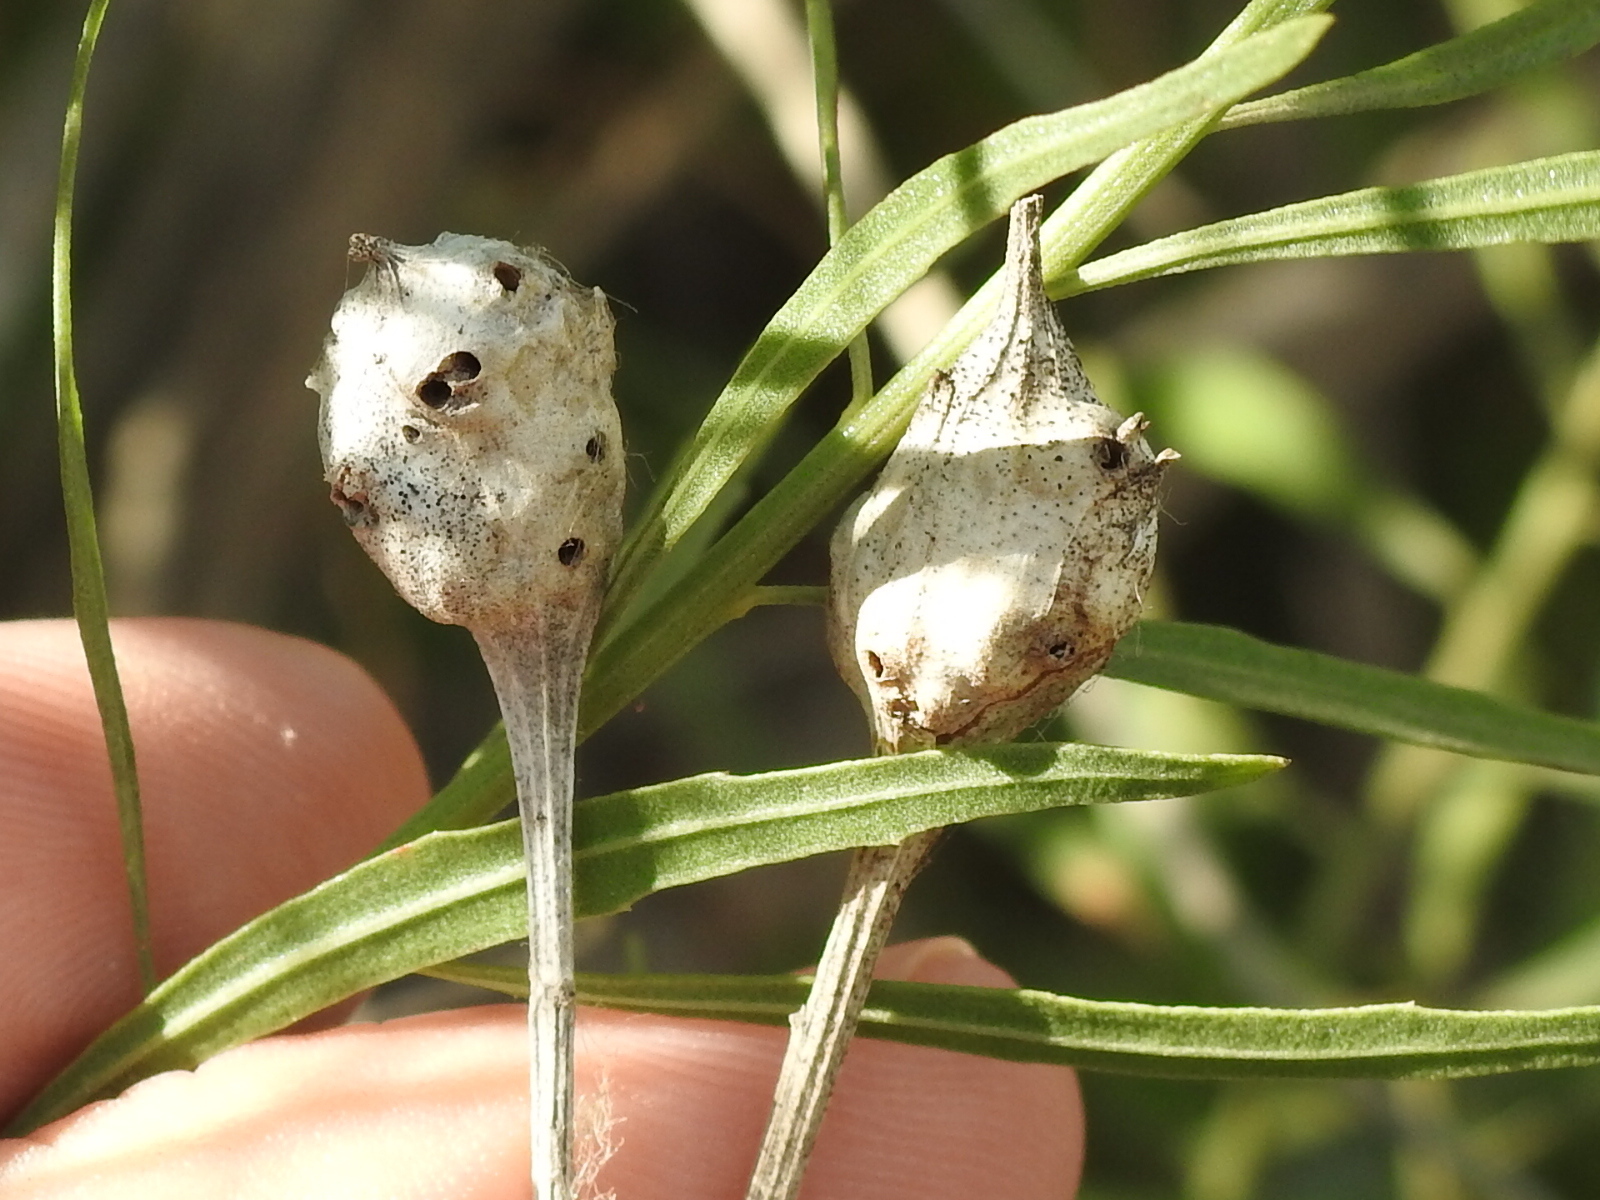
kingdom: Animalia
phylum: Arthropoda
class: Insecta
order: Diptera
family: Cecidomyiidae
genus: Neolasioptera
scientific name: Neolasioptera lathami
